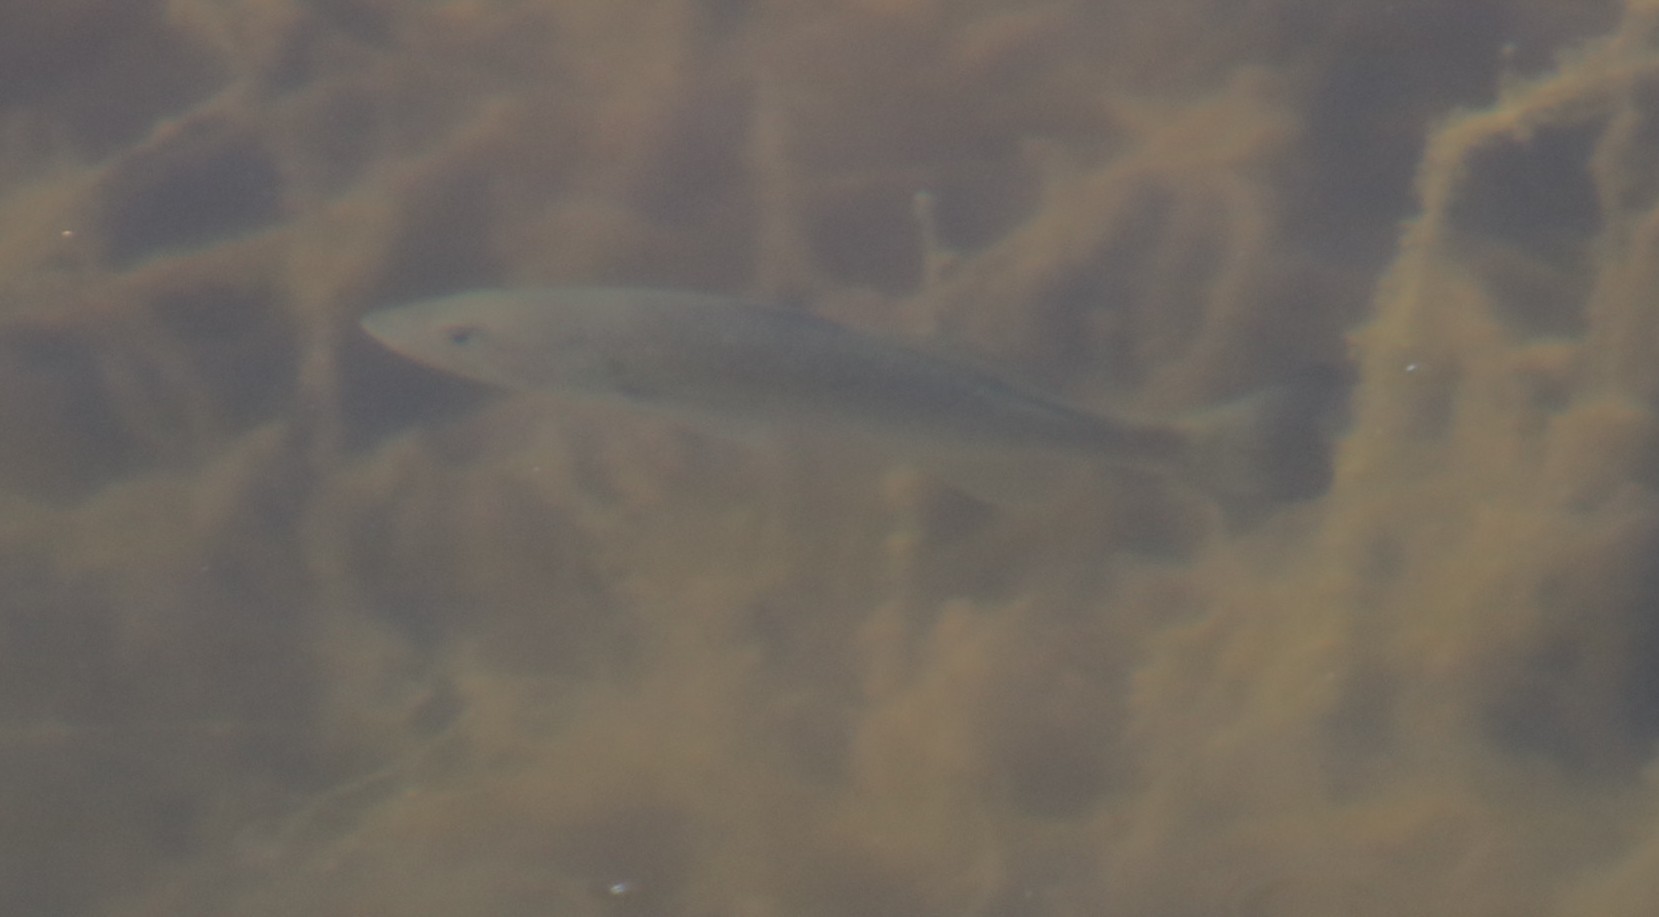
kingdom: Animalia
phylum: Chordata
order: Perciformes
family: Centrarchidae
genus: Micropterus
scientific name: Micropterus
